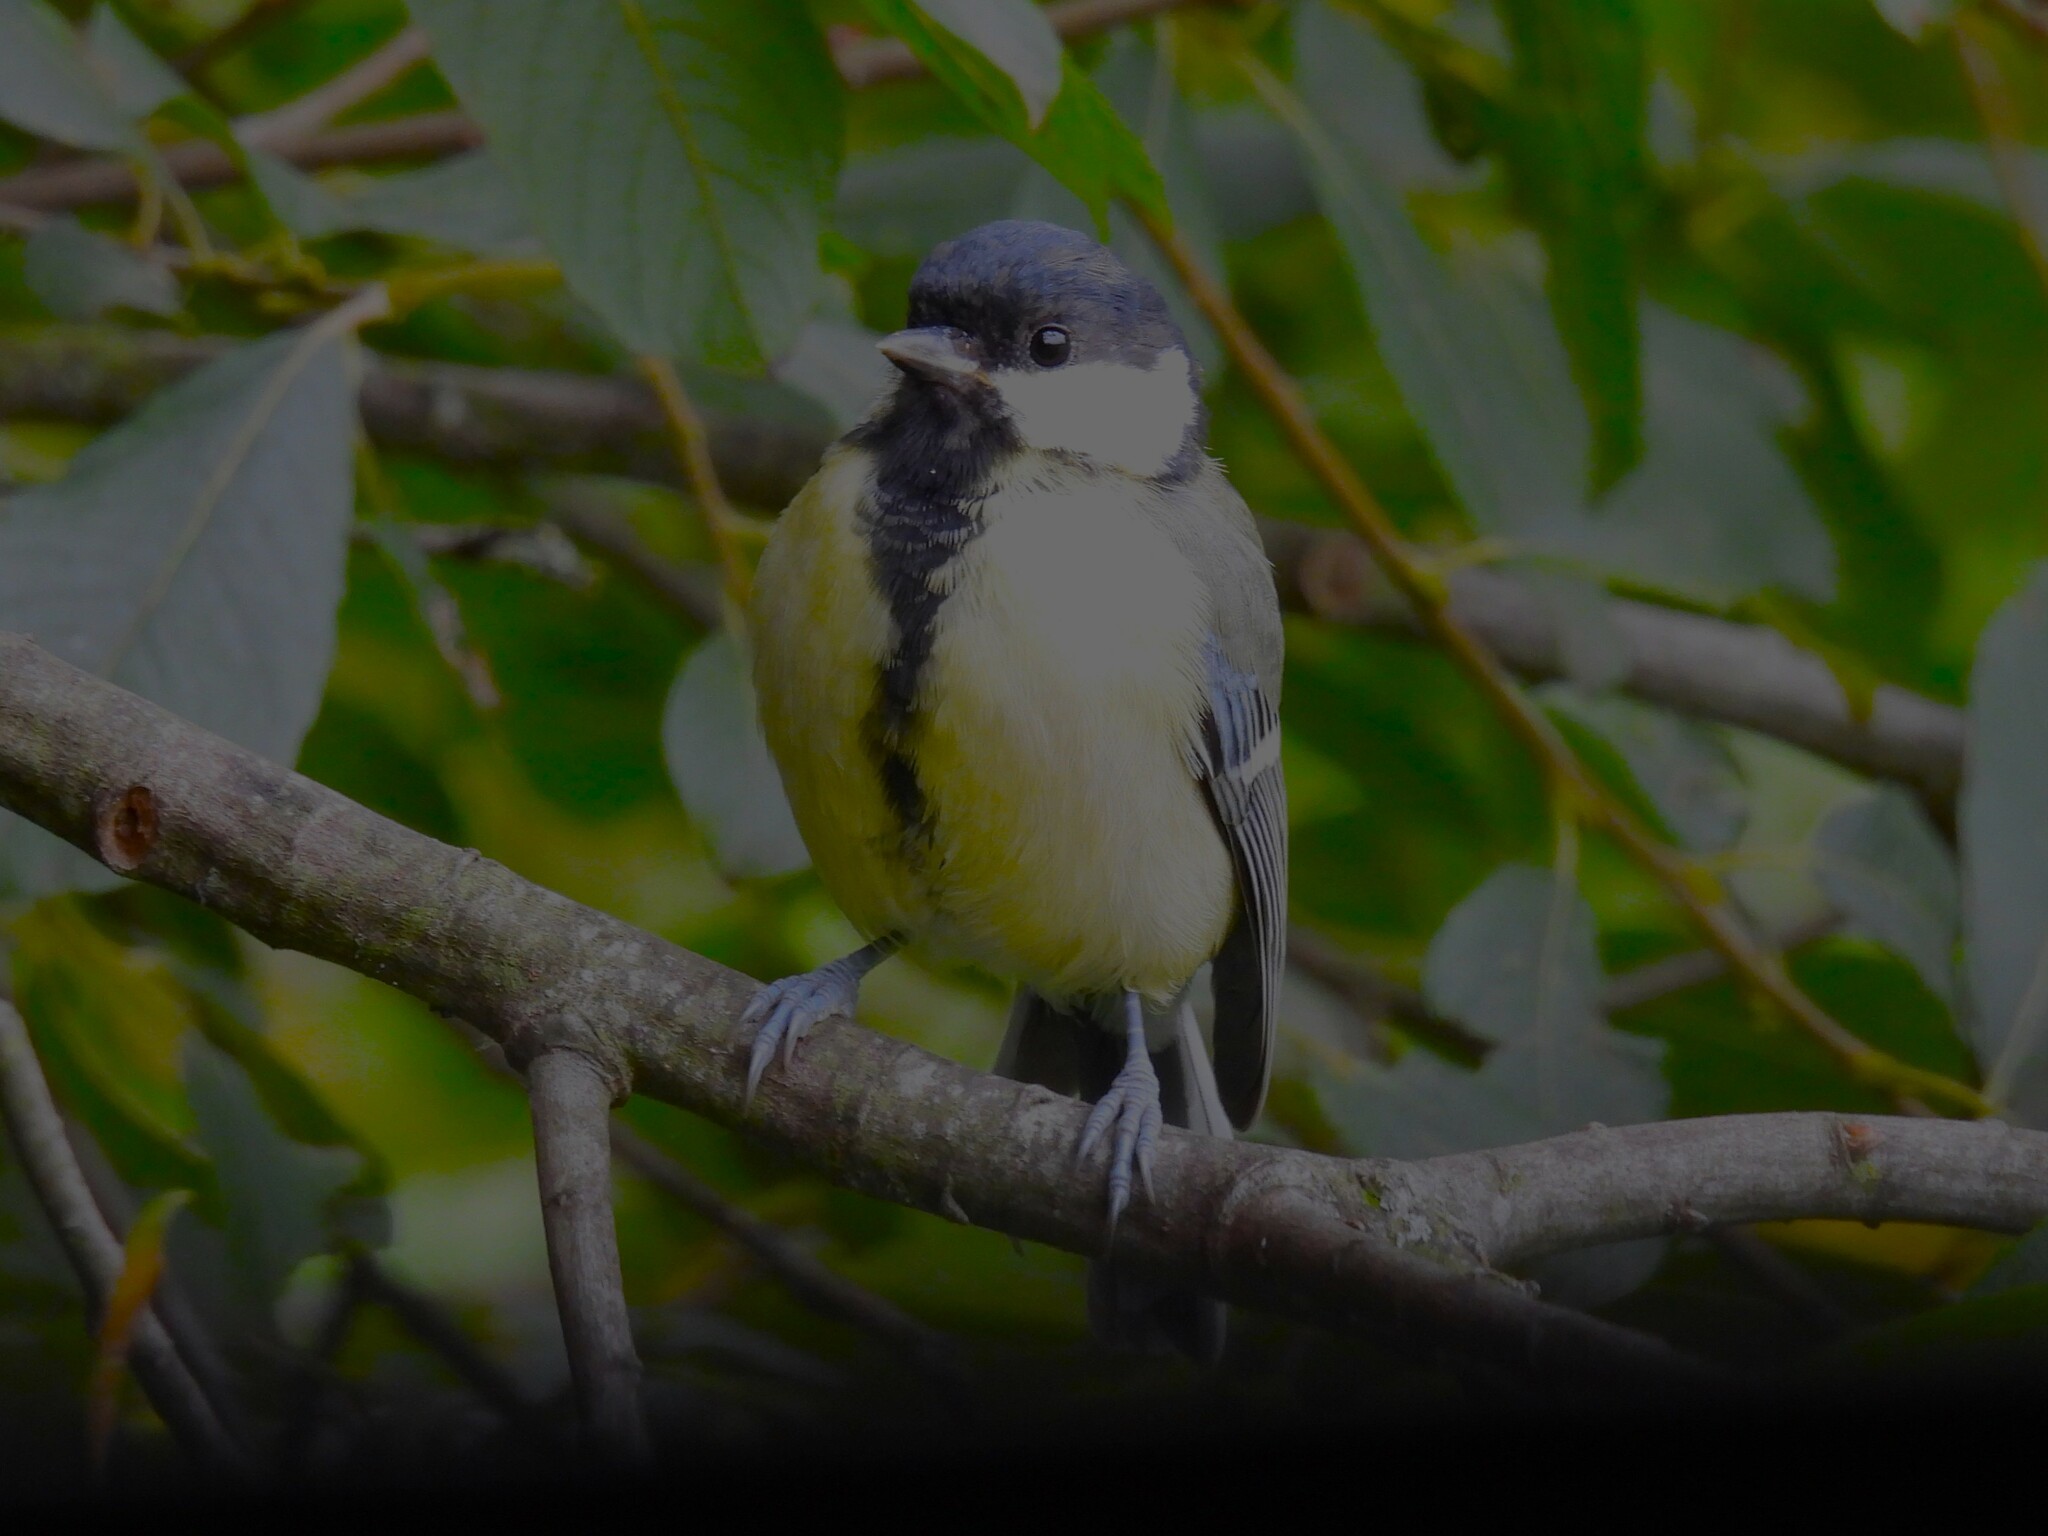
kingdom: Animalia
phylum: Chordata
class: Aves
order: Passeriformes
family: Paridae
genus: Parus
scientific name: Parus major
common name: Great tit
